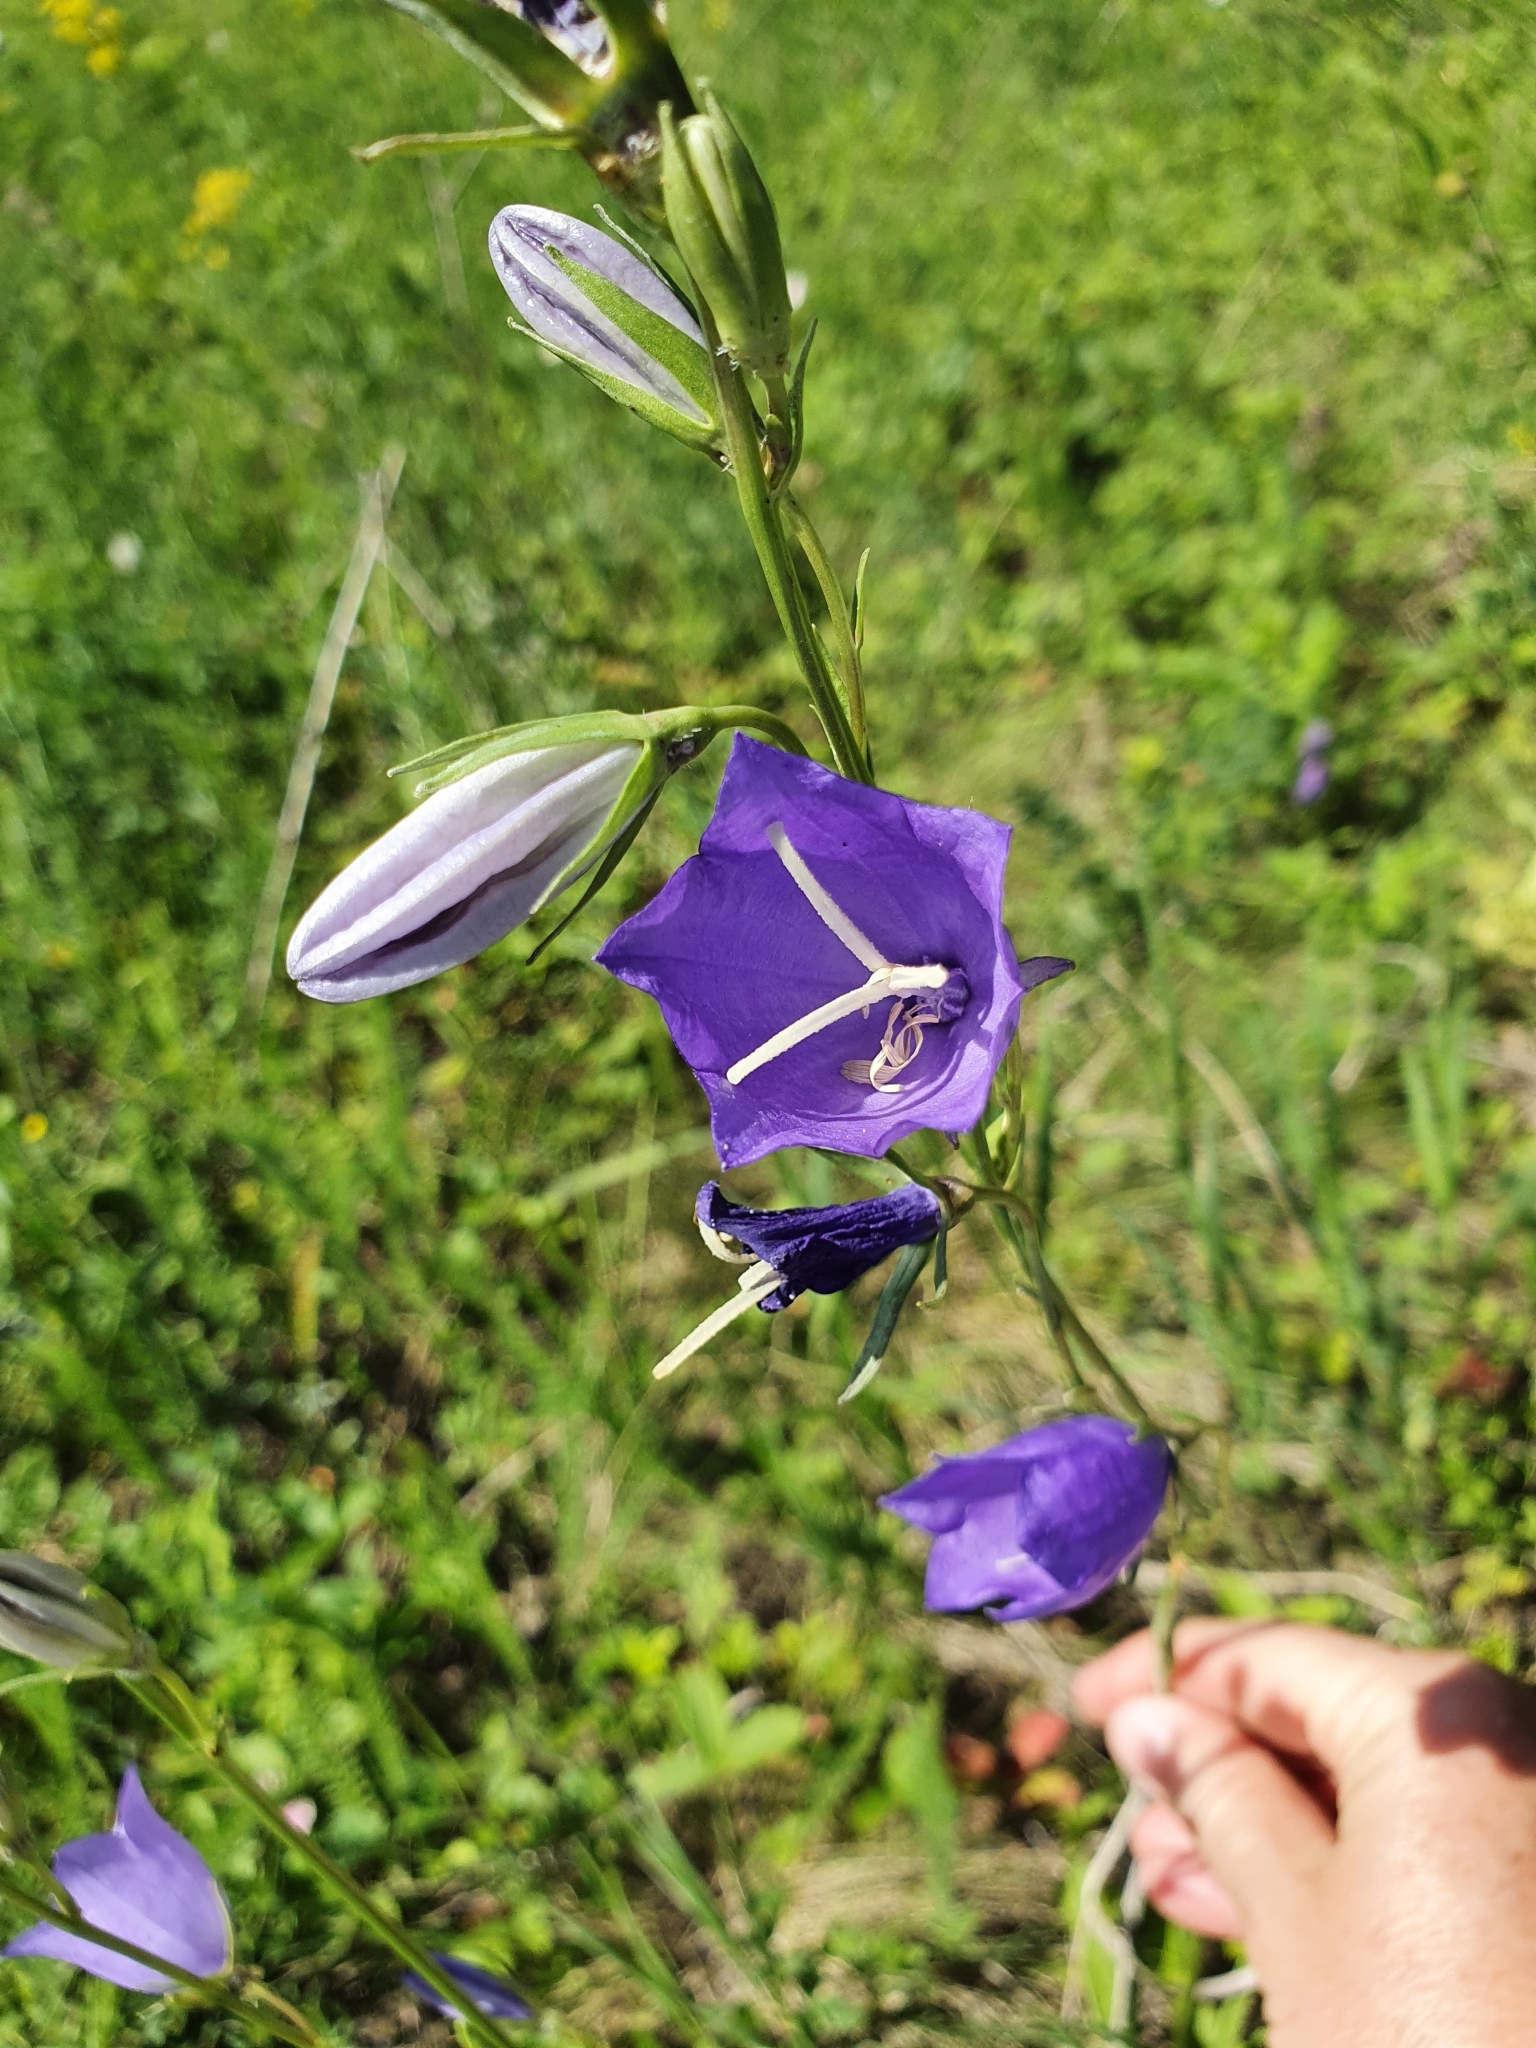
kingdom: Plantae
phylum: Tracheophyta
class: Magnoliopsida
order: Asterales
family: Campanulaceae
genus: Campanula
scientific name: Campanula persicifolia
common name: Peach-leaved bellflower
